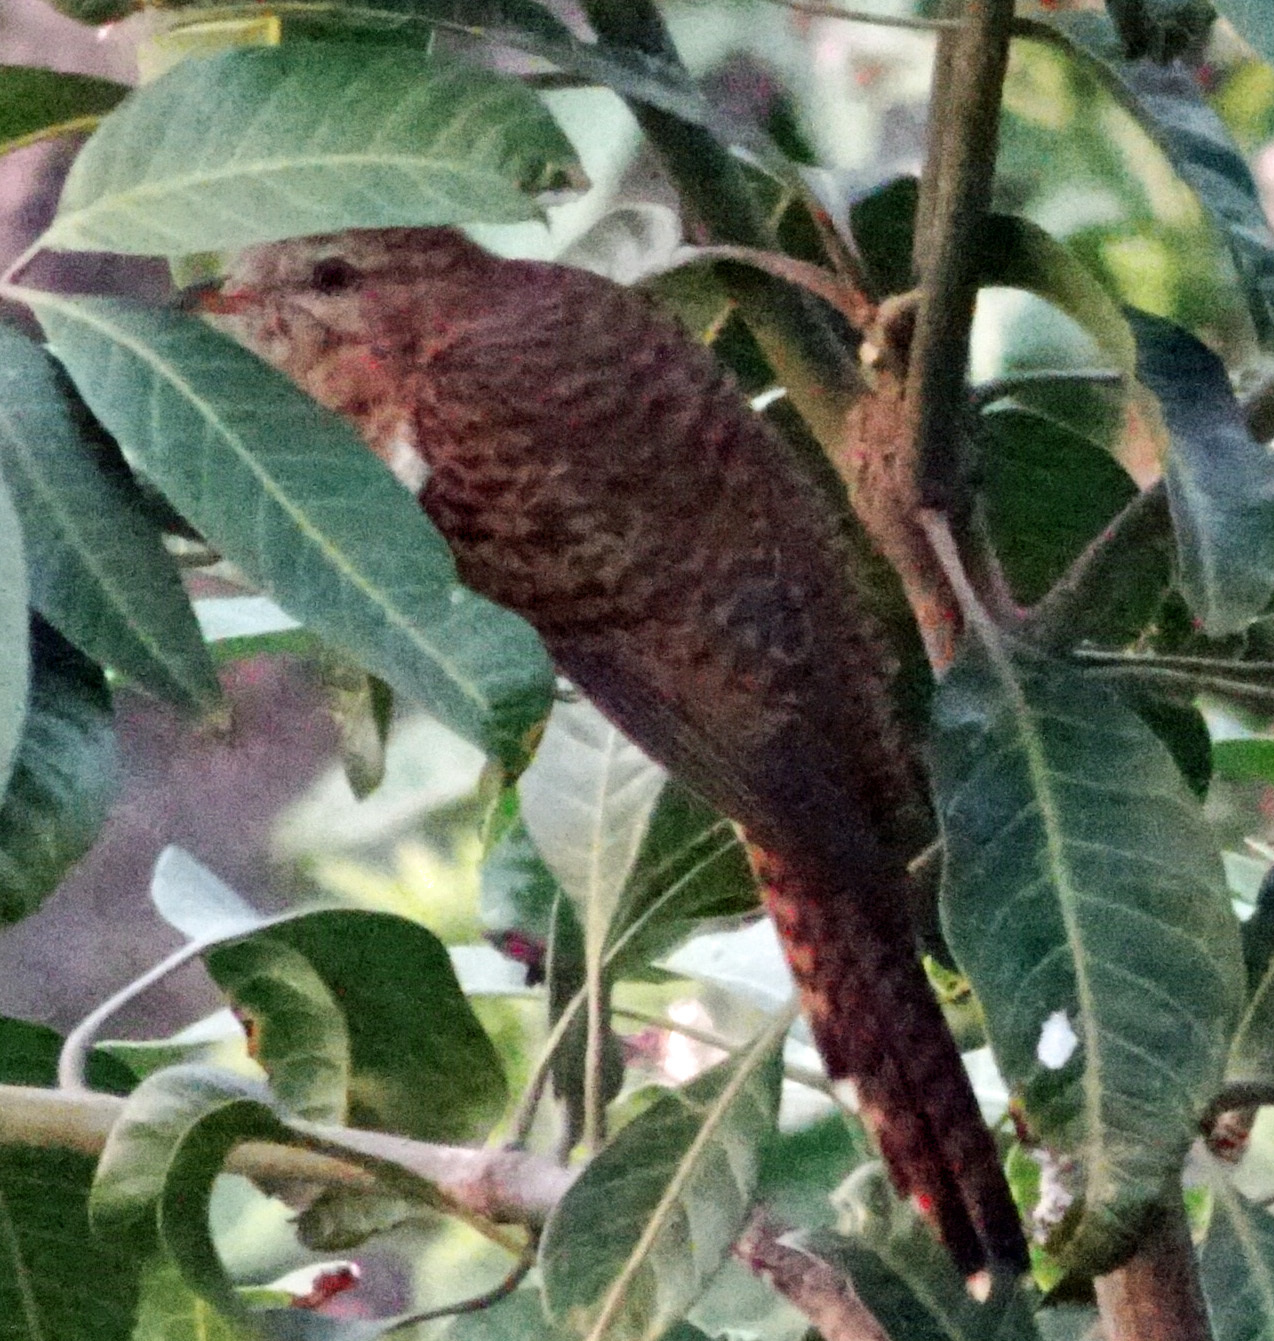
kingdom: Animalia
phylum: Chordata
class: Aves
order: Cuculiformes
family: Cuculidae
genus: Cacomantis
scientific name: Cacomantis merulinus
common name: Plaintive cuckoo
